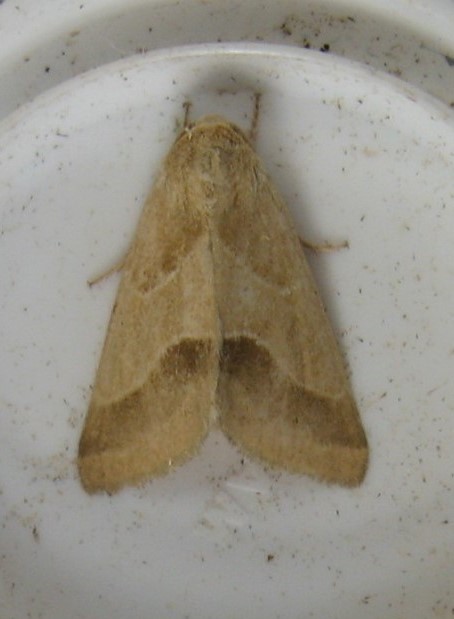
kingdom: Animalia
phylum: Arthropoda
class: Insecta
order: Lepidoptera
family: Noctuidae
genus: Schinia
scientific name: Schinia oleagina
